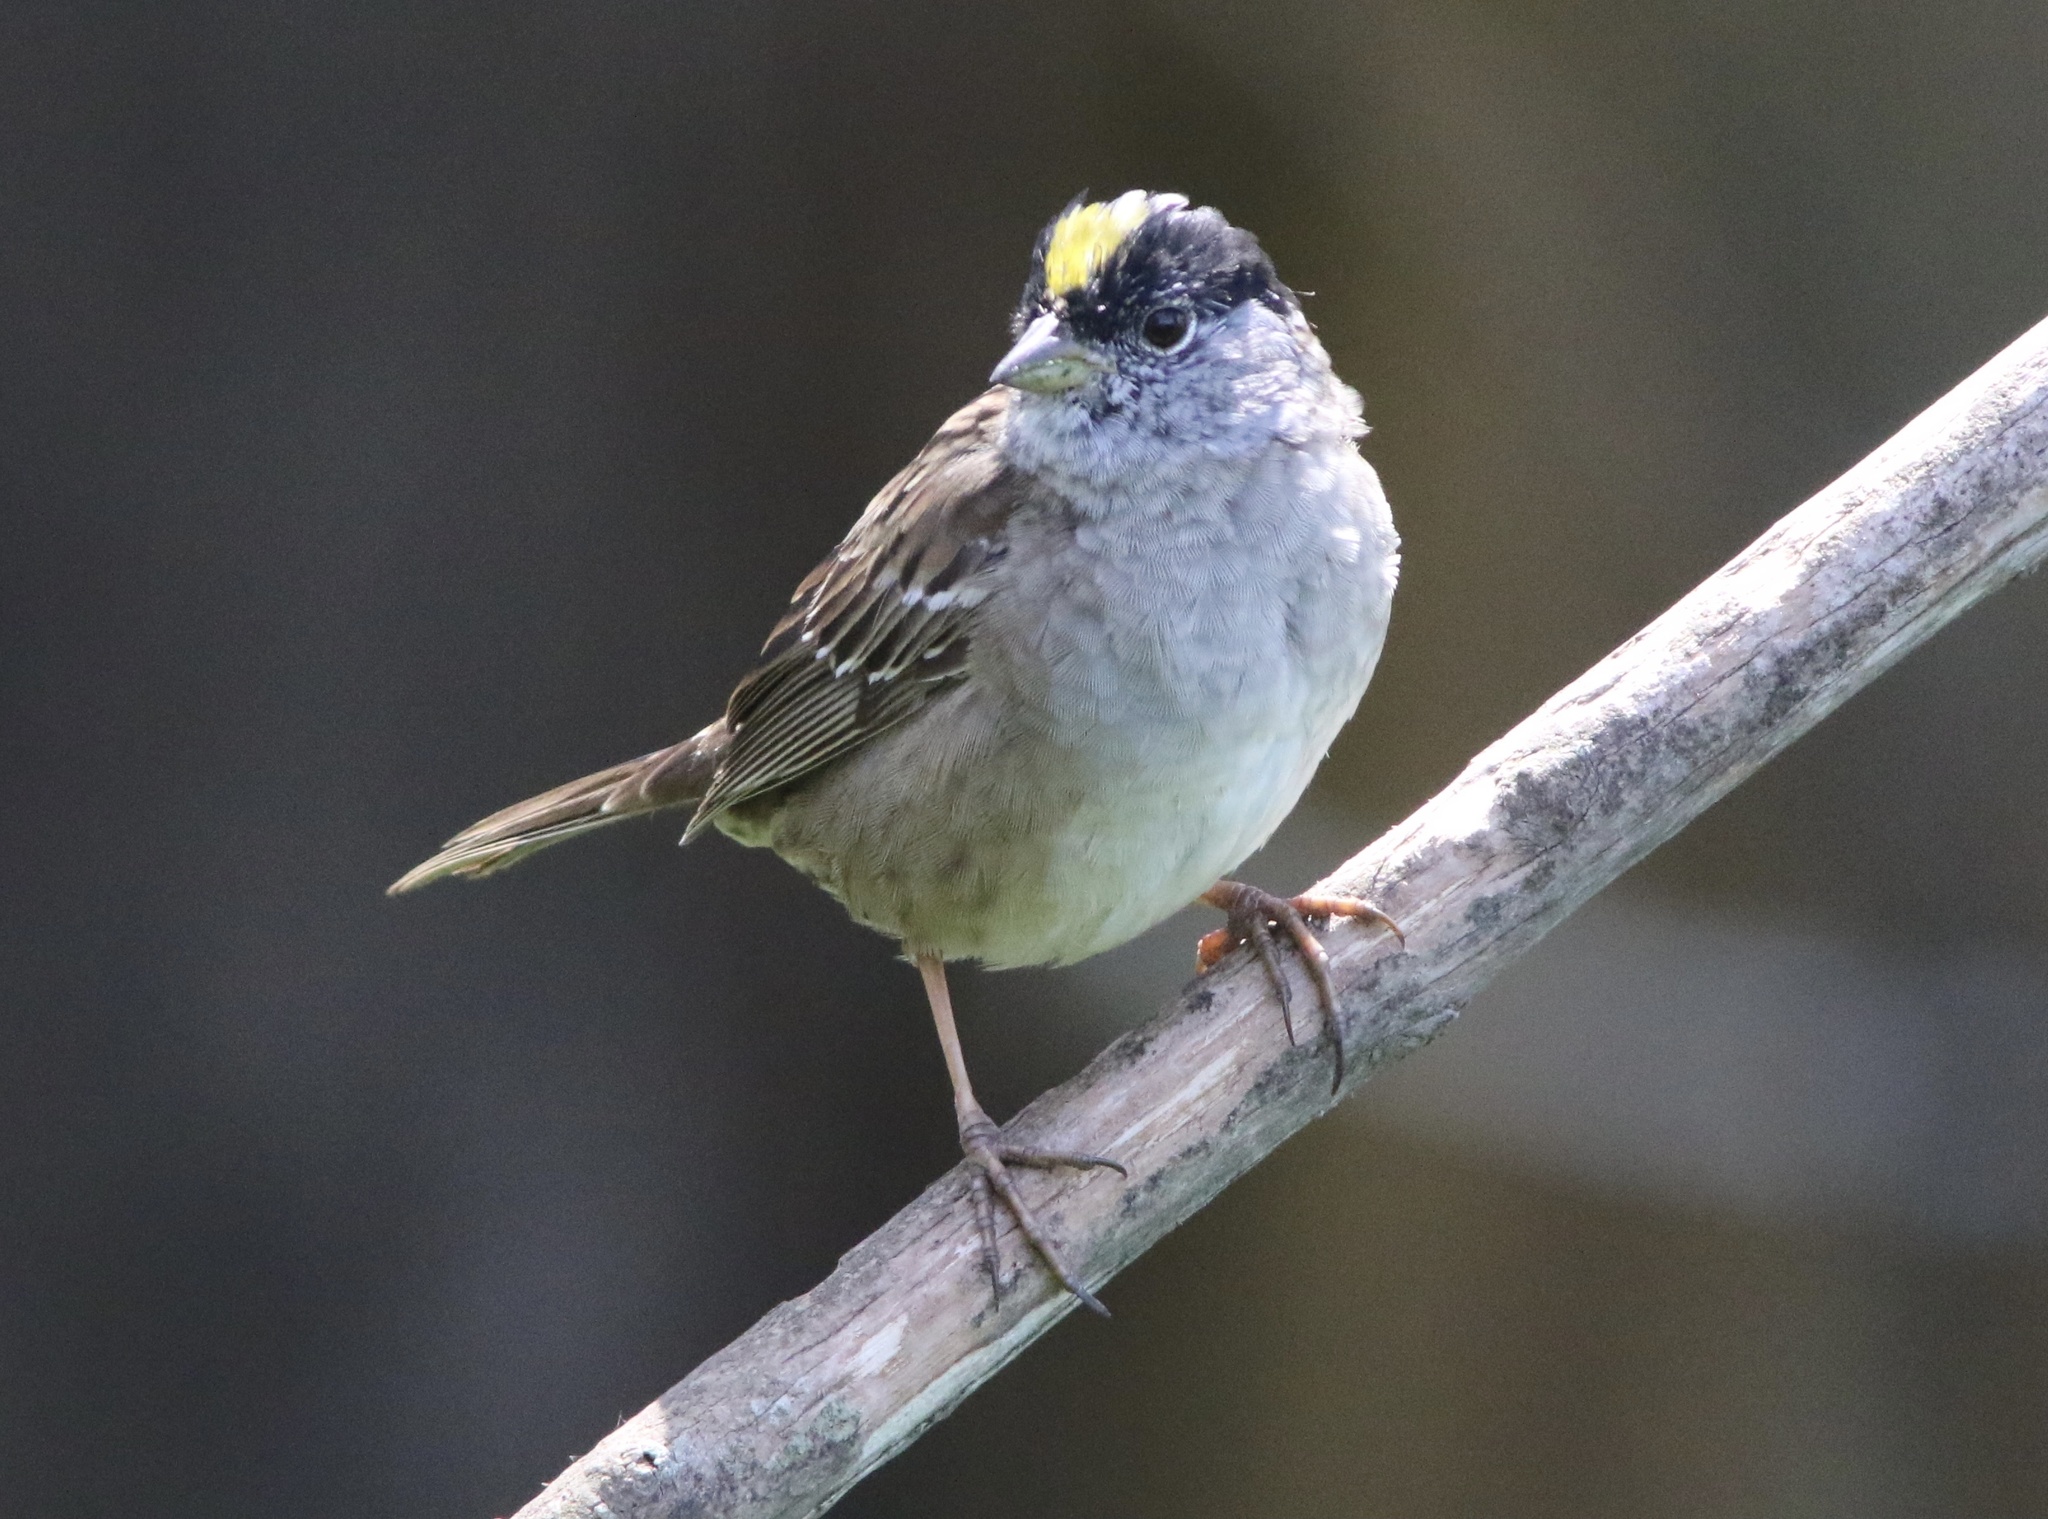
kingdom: Animalia
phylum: Chordata
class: Aves
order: Passeriformes
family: Passerellidae
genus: Zonotrichia
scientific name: Zonotrichia atricapilla
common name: Golden-crowned sparrow
